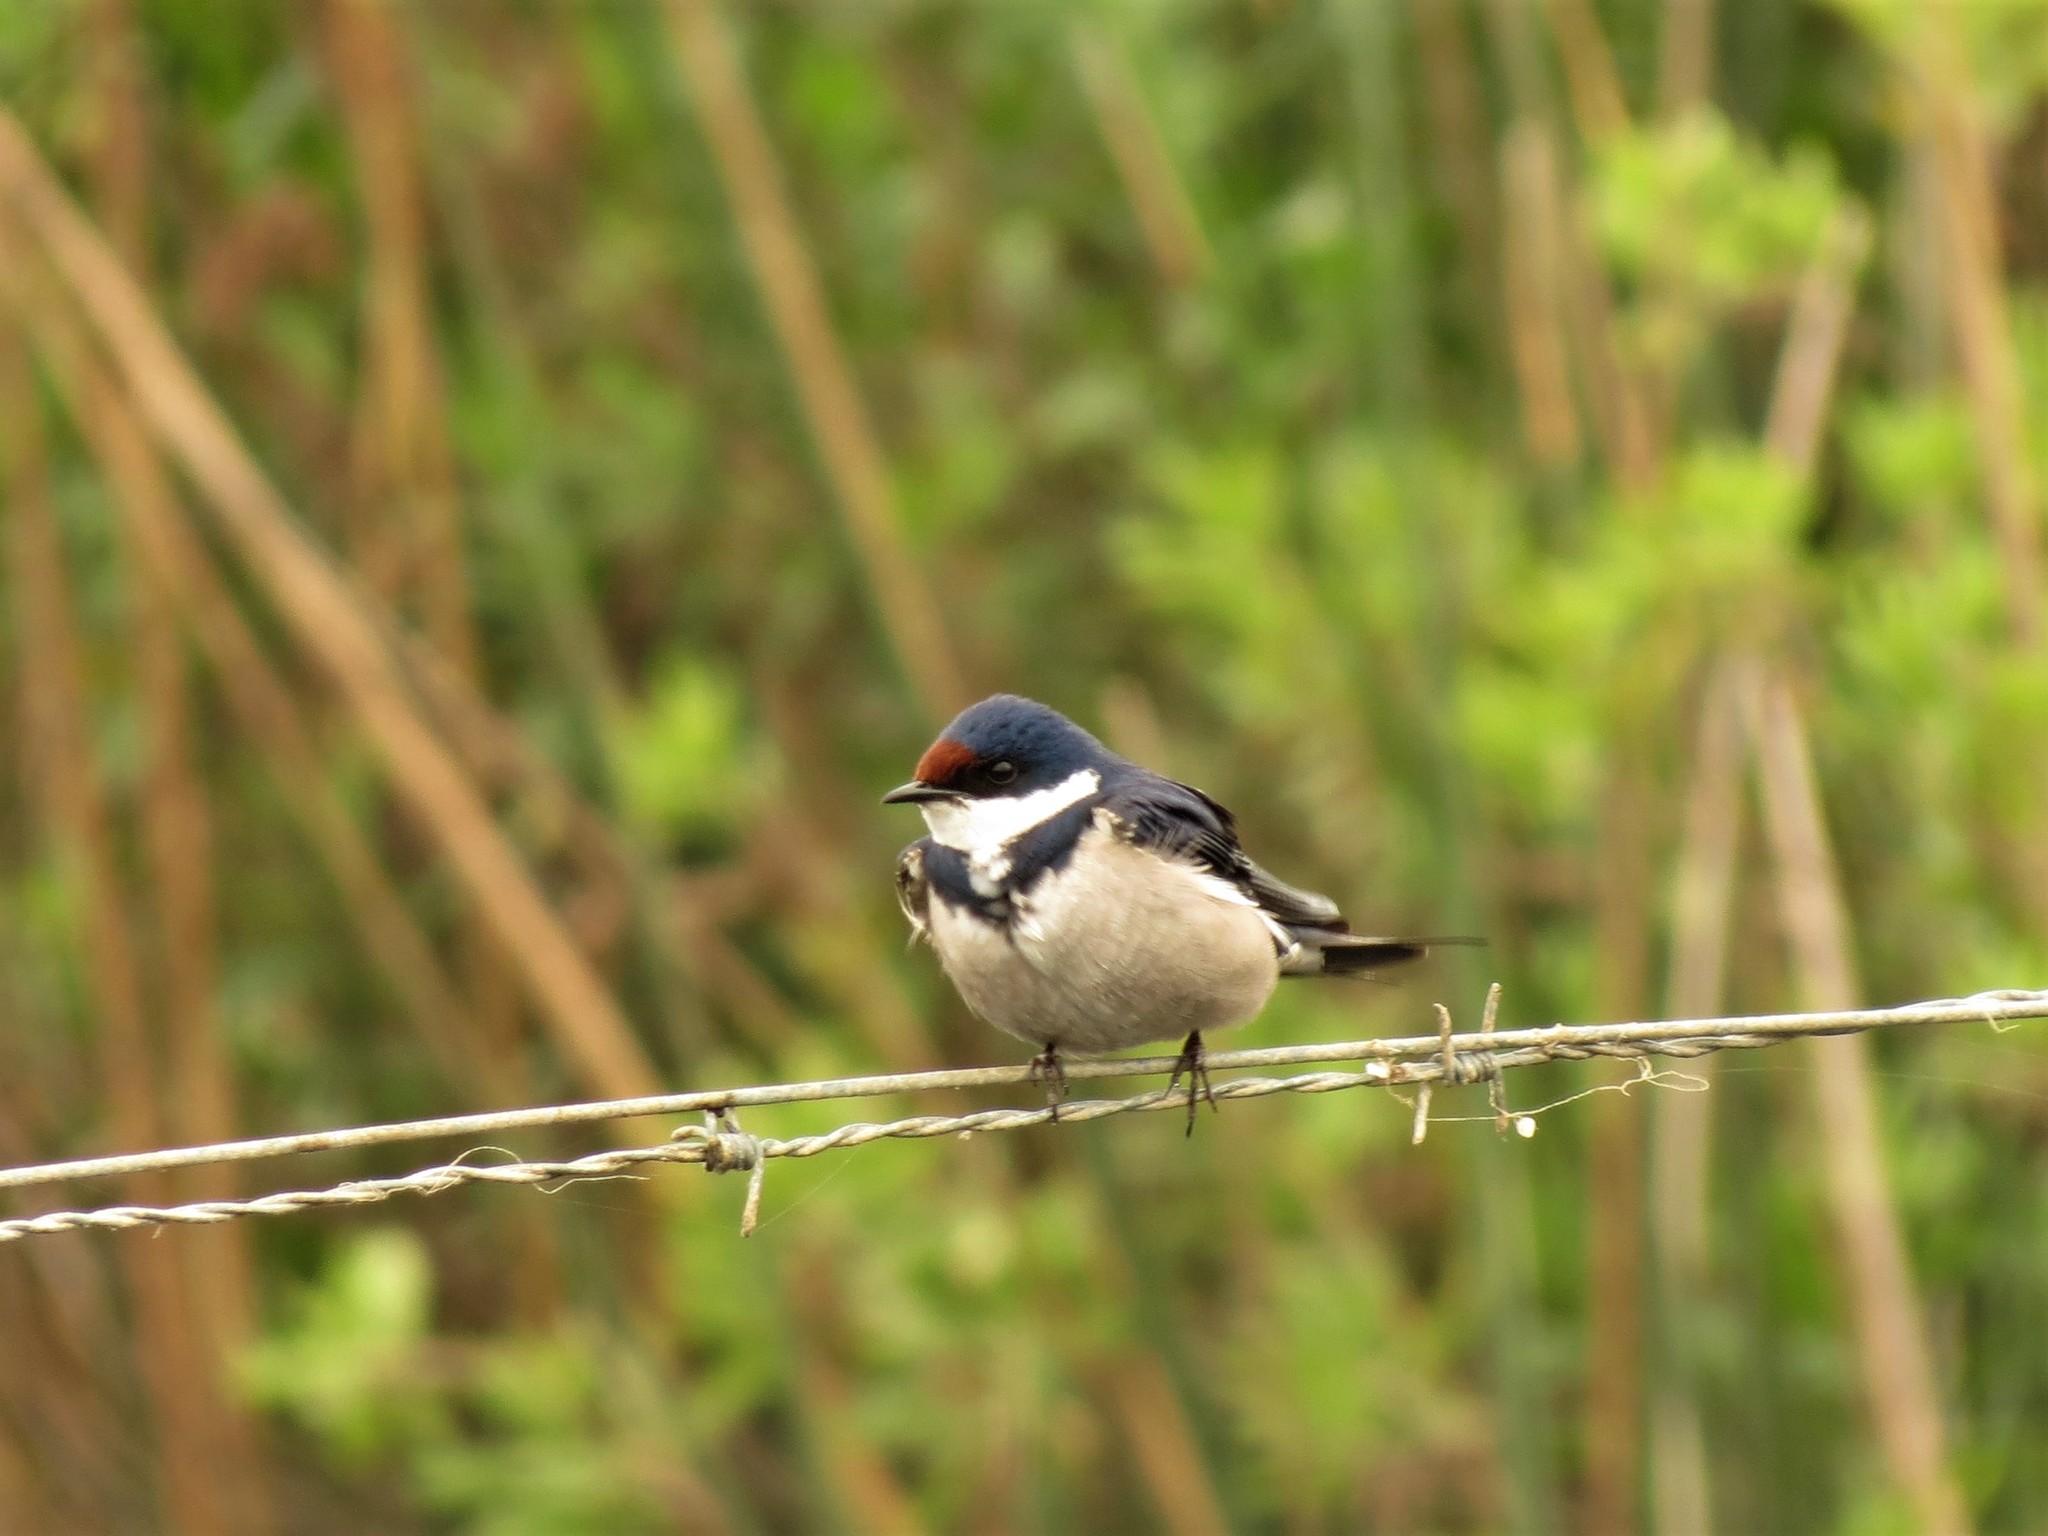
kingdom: Animalia
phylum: Chordata
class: Aves
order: Passeriformes
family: Hirundinidae
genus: Hirundo
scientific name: Hirundo albigularis
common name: White-throated swallow
